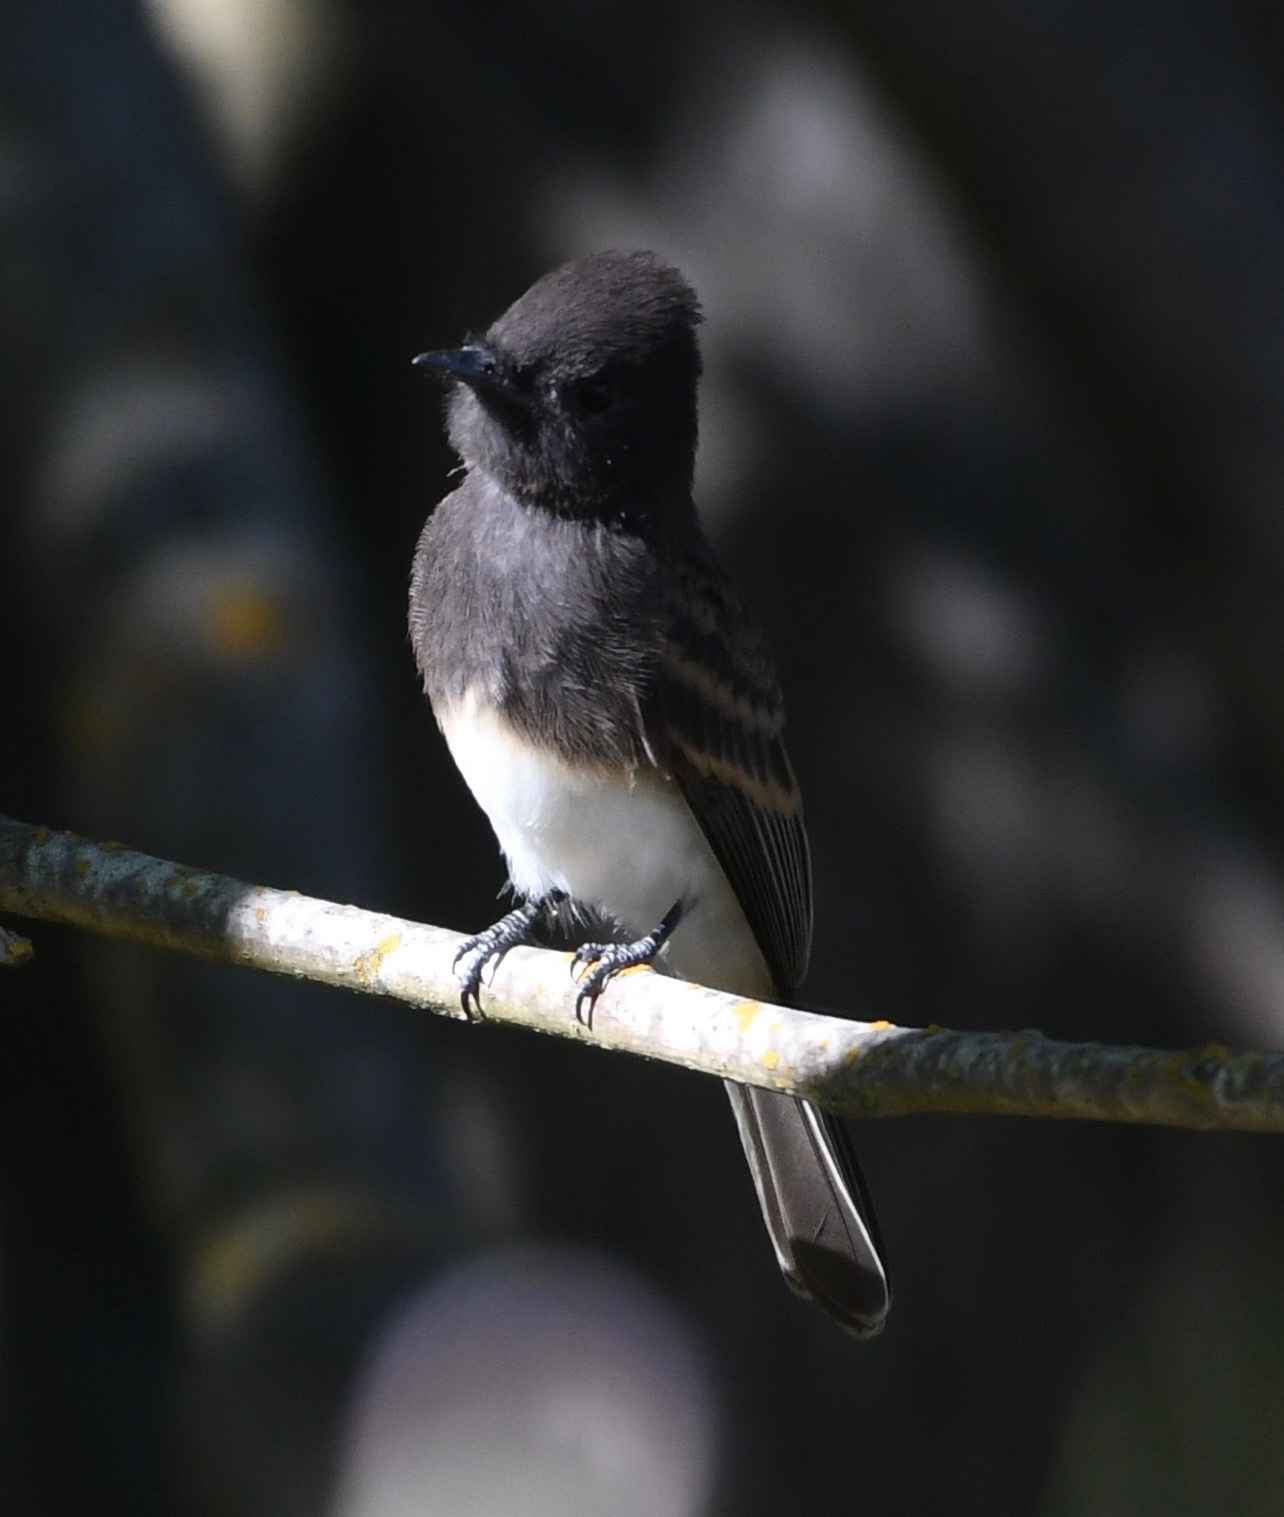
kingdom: Animalia
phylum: Chordata
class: Aves
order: Passeriformes
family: Tyrannidae
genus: Sayornis
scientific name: Sayornis nigricans
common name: Black phoebe
